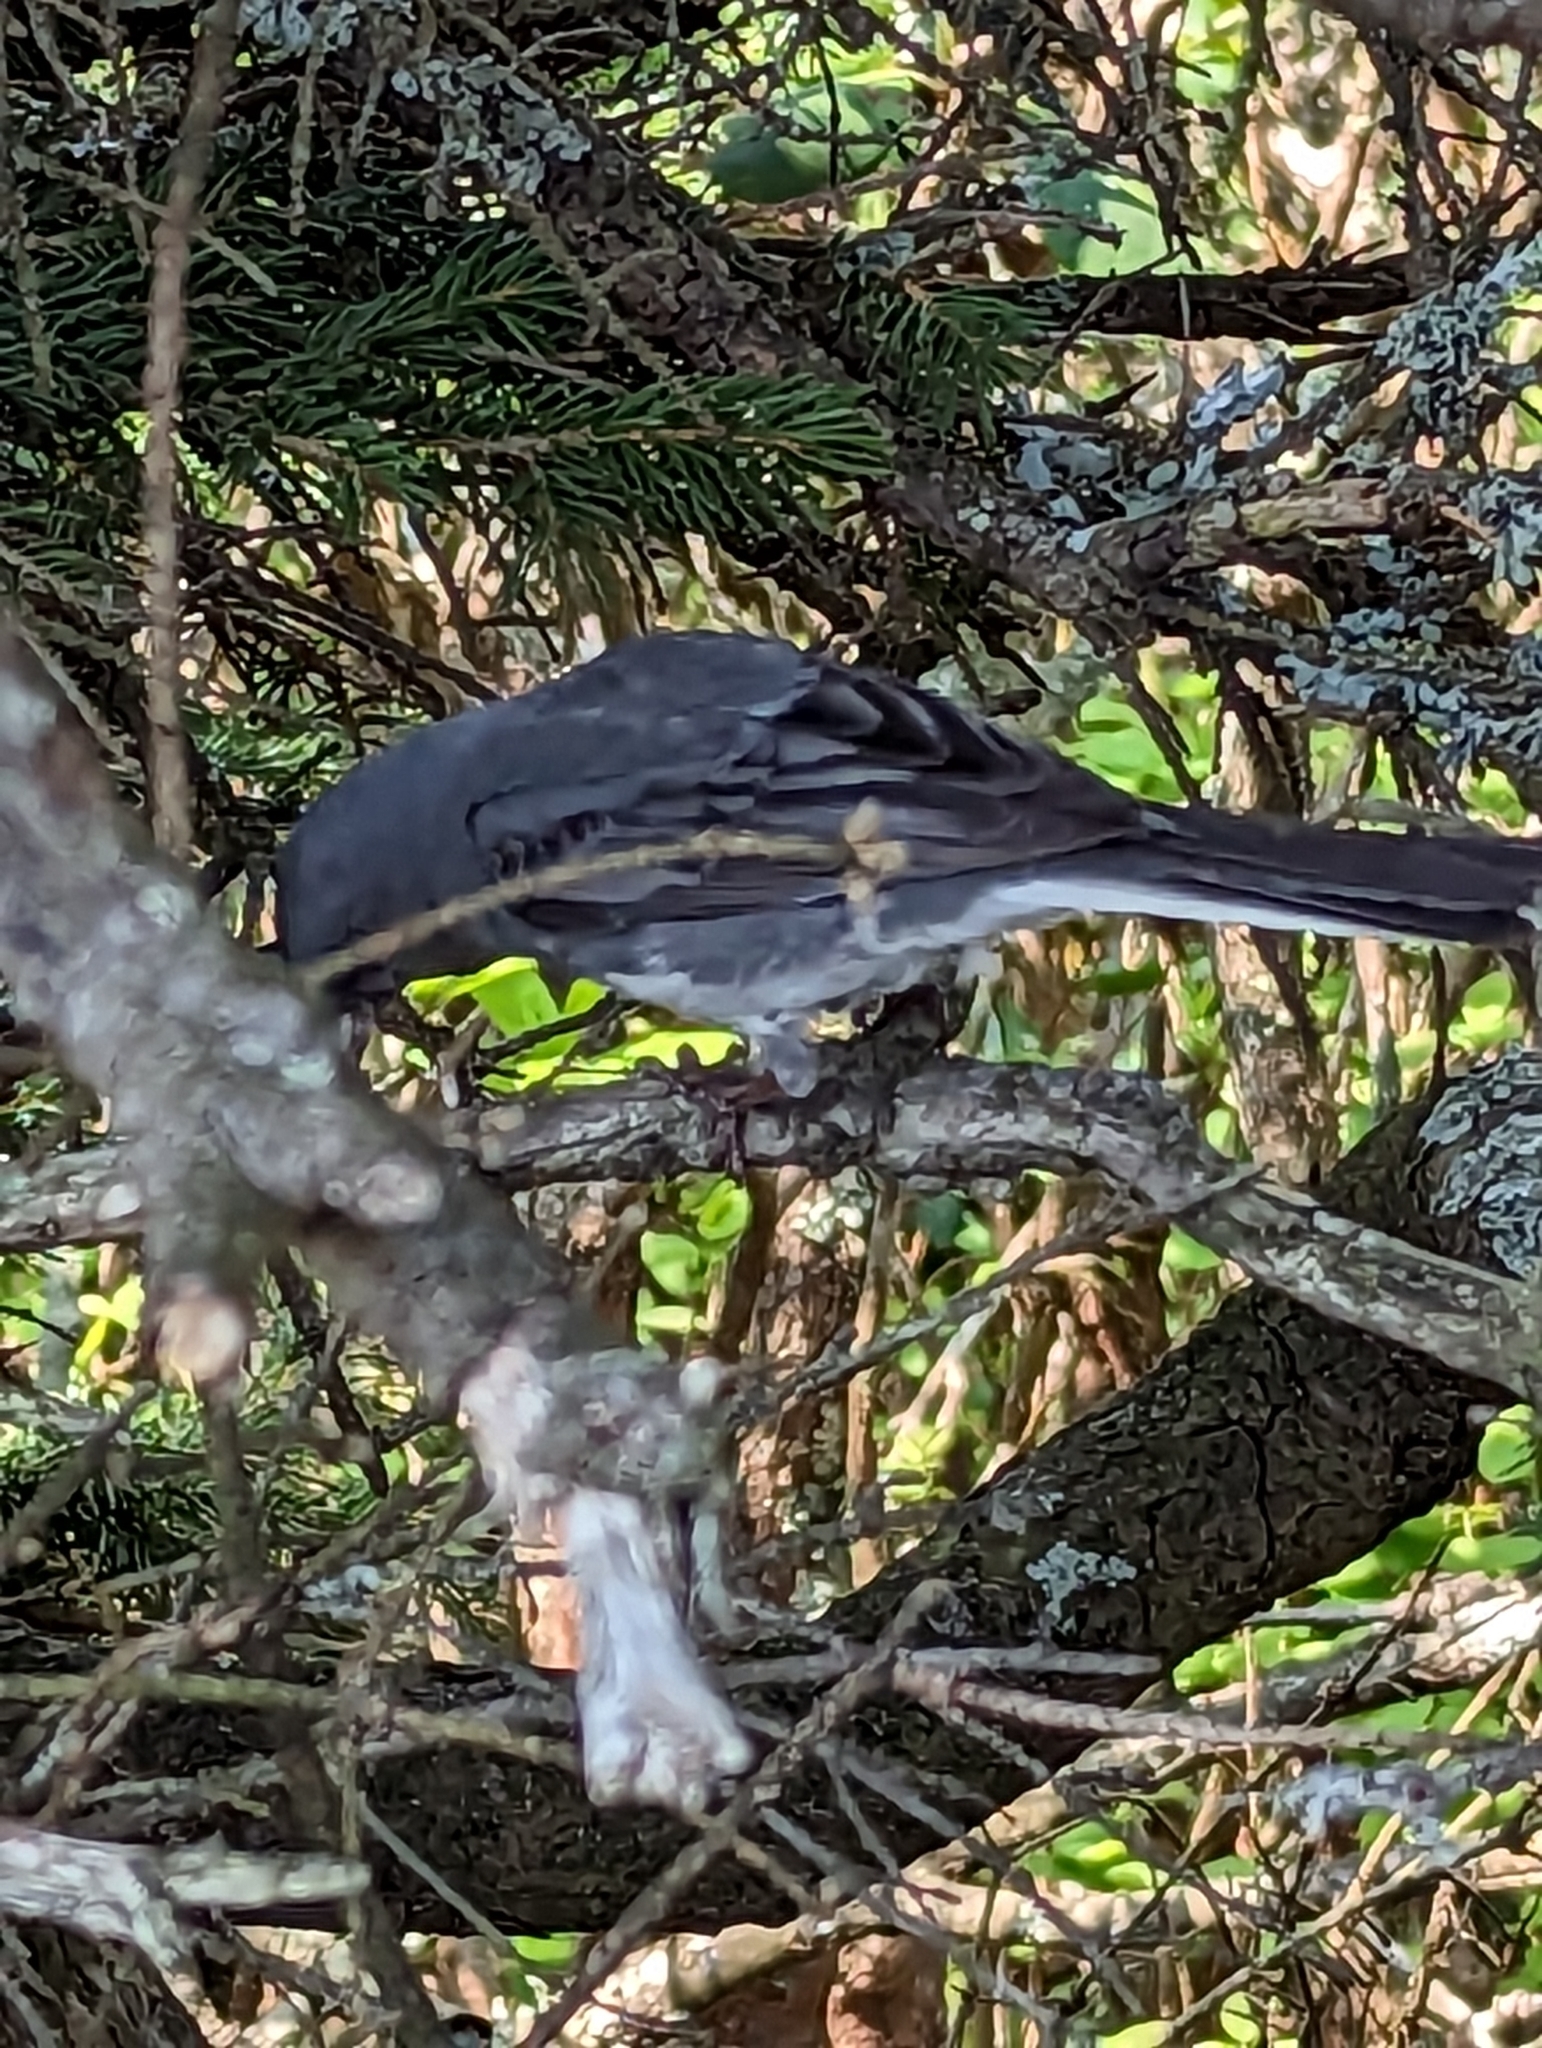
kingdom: Animalia
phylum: Chordata
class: Aves
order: Passeriformes
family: Passerellidae
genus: Junco
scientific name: Junco hyemalis
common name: Dark-eyed junco
